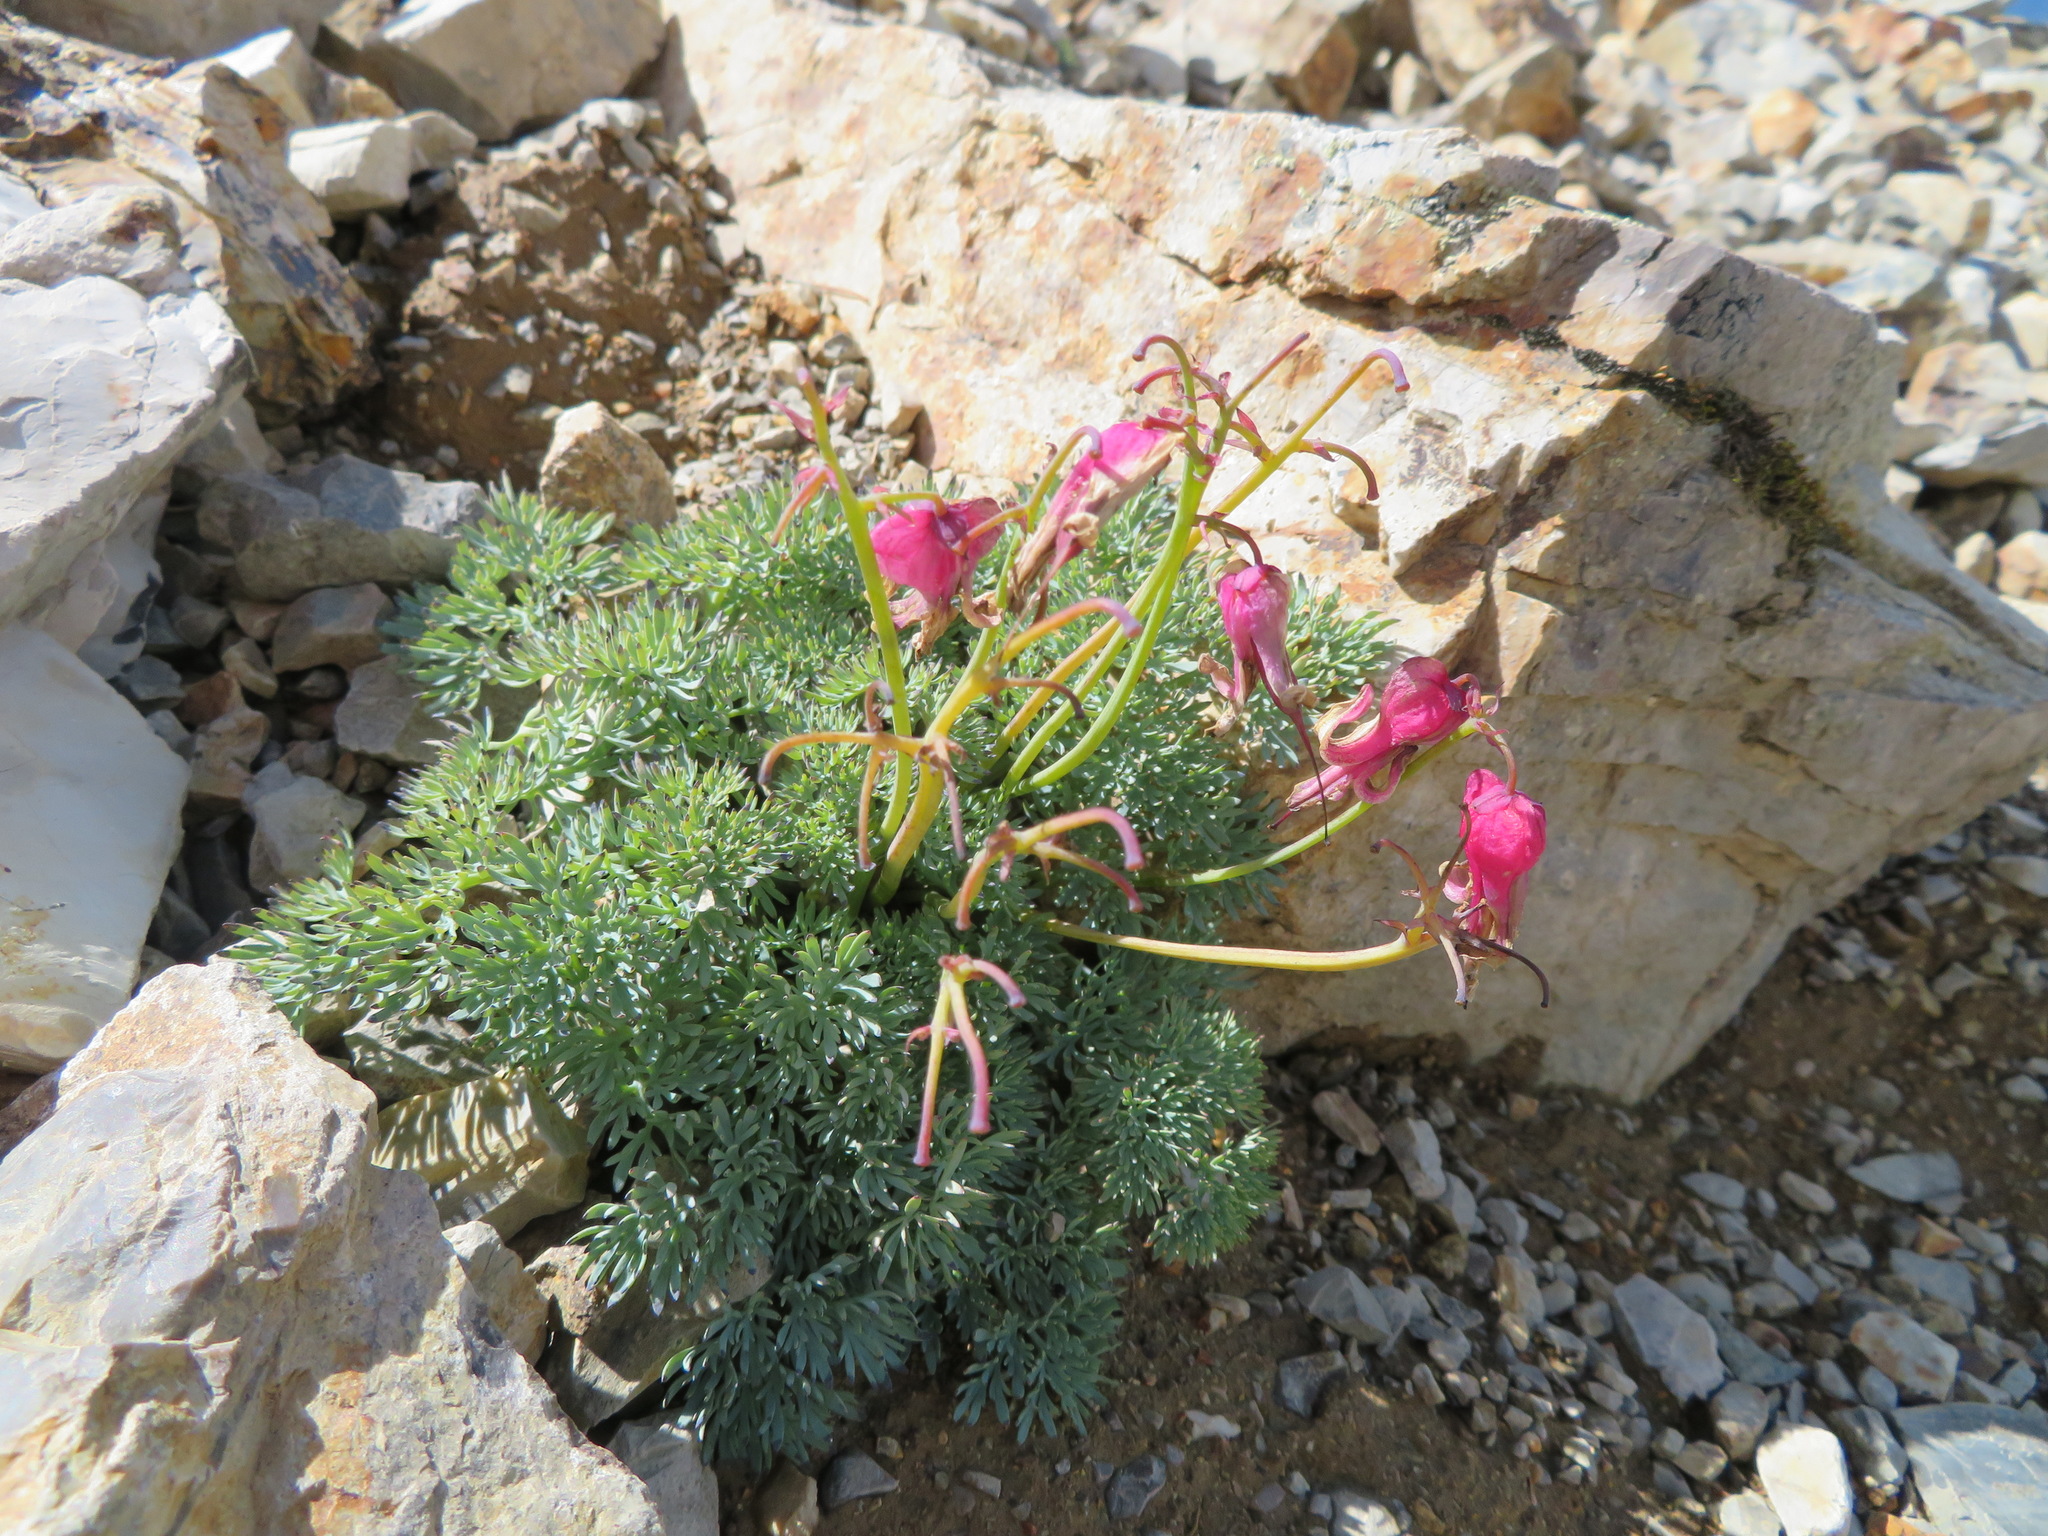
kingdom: Plantae
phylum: Tracheophyta
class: Magnoliopsida
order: Ranunculales
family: Papaveraceae
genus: Dicentra
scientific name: Dicentra peregrina
